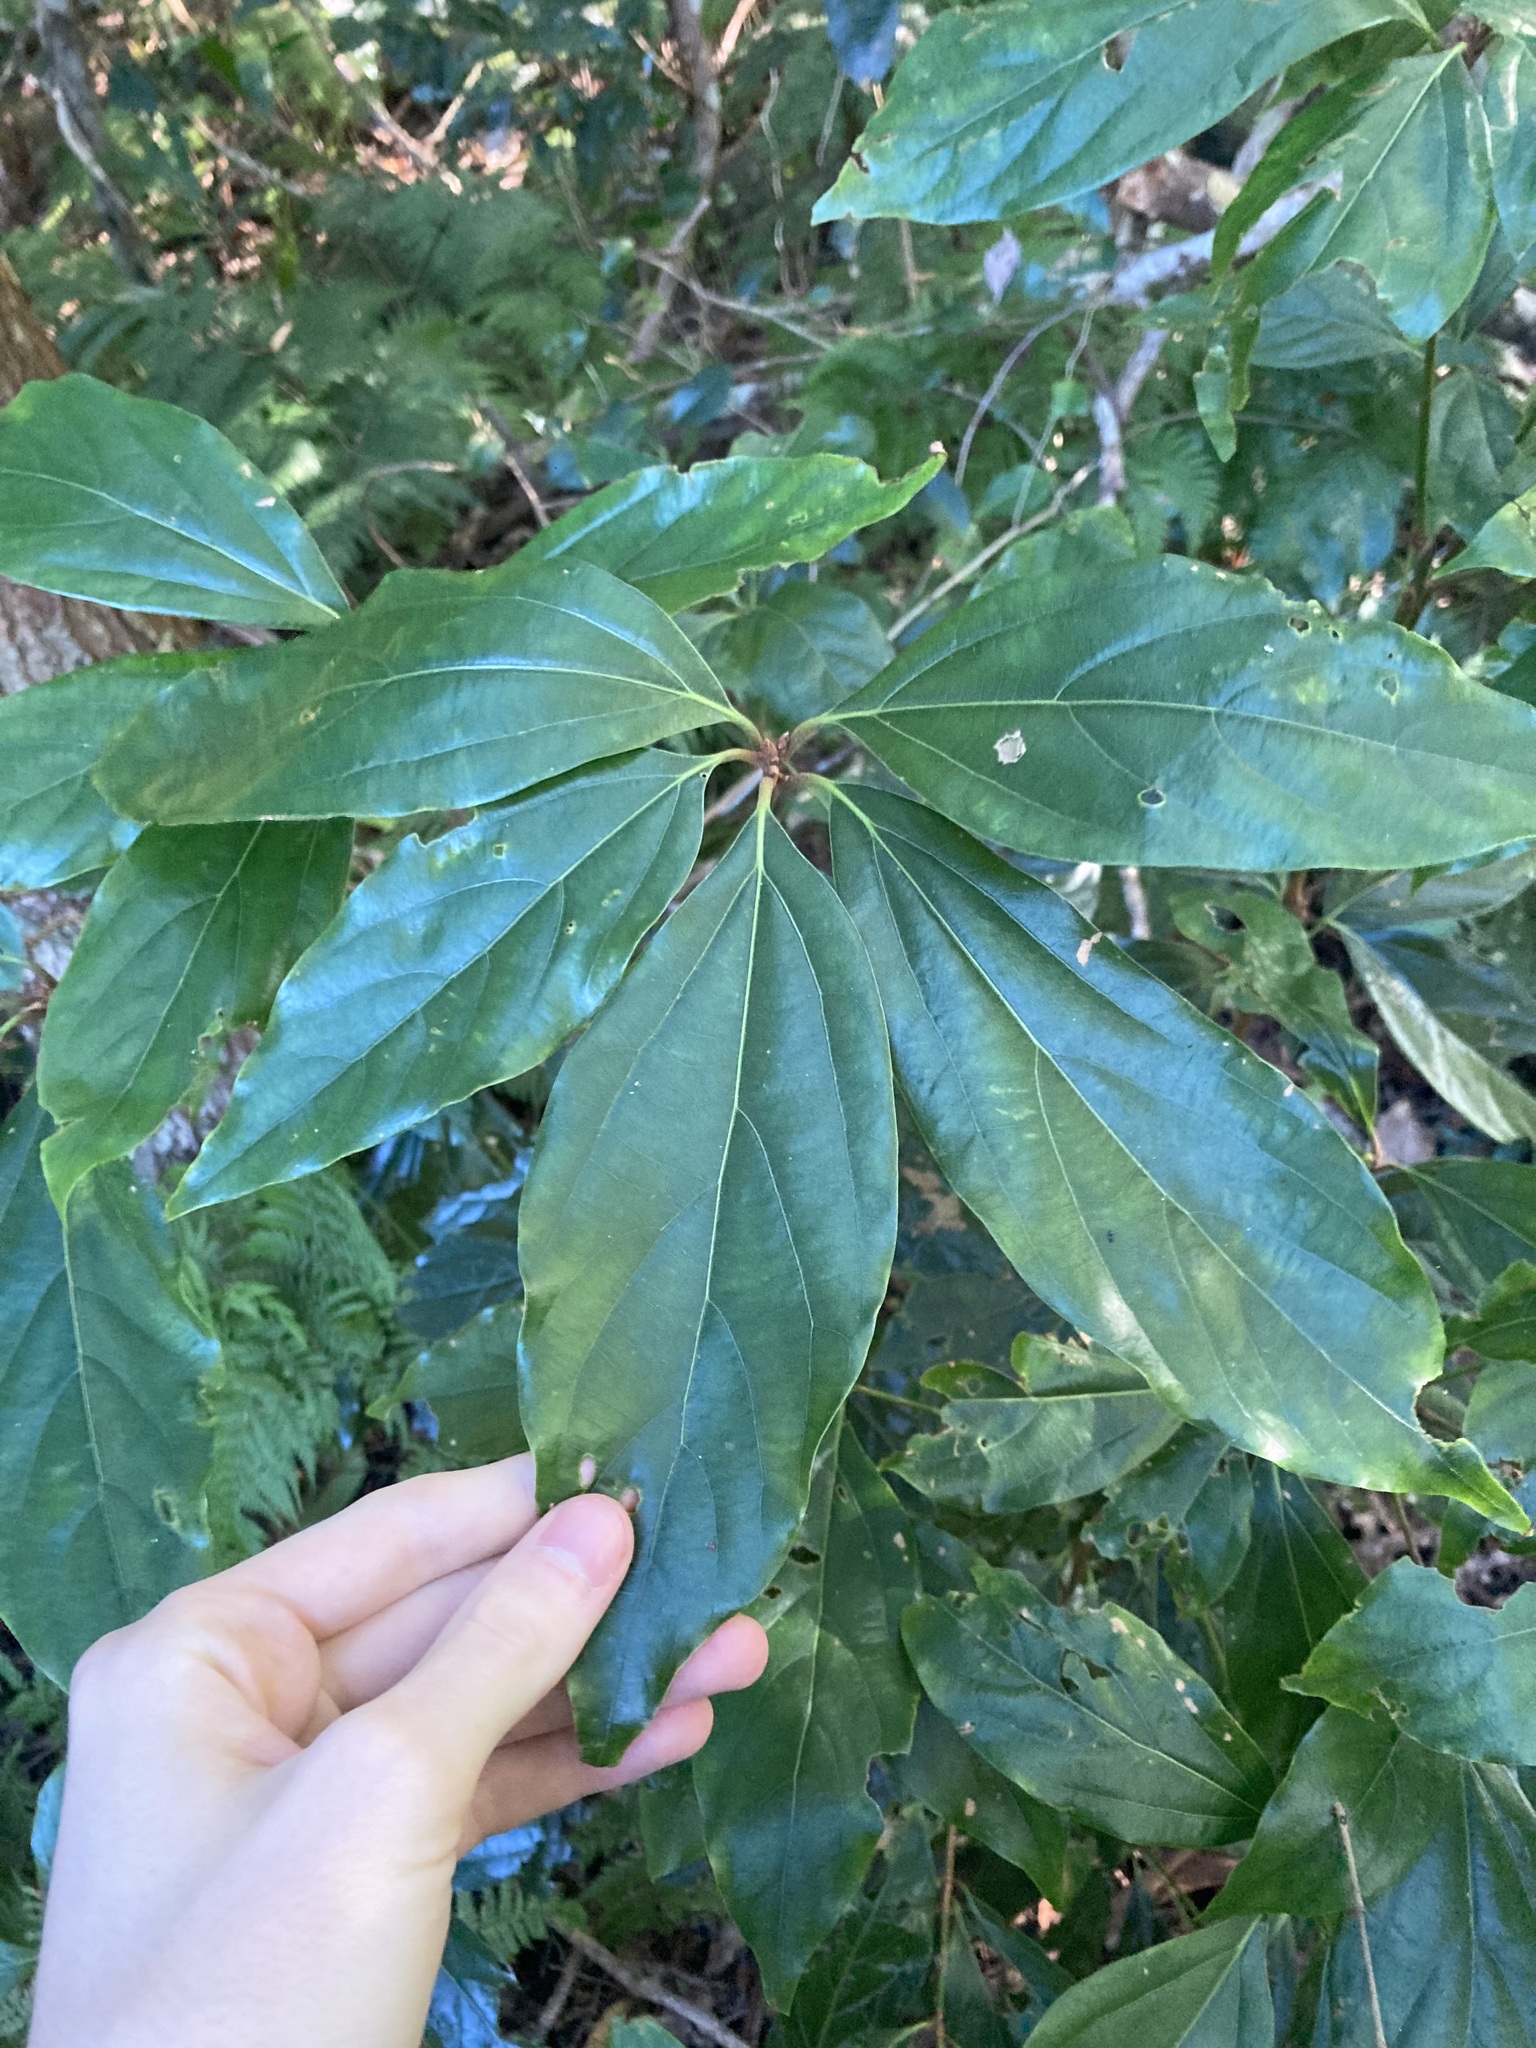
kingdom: Plantae
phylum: Tracheophyta
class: Magnoliopsida
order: Laurales
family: Lauraceae
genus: Neolitsea
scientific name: Neolitsea dealbata
